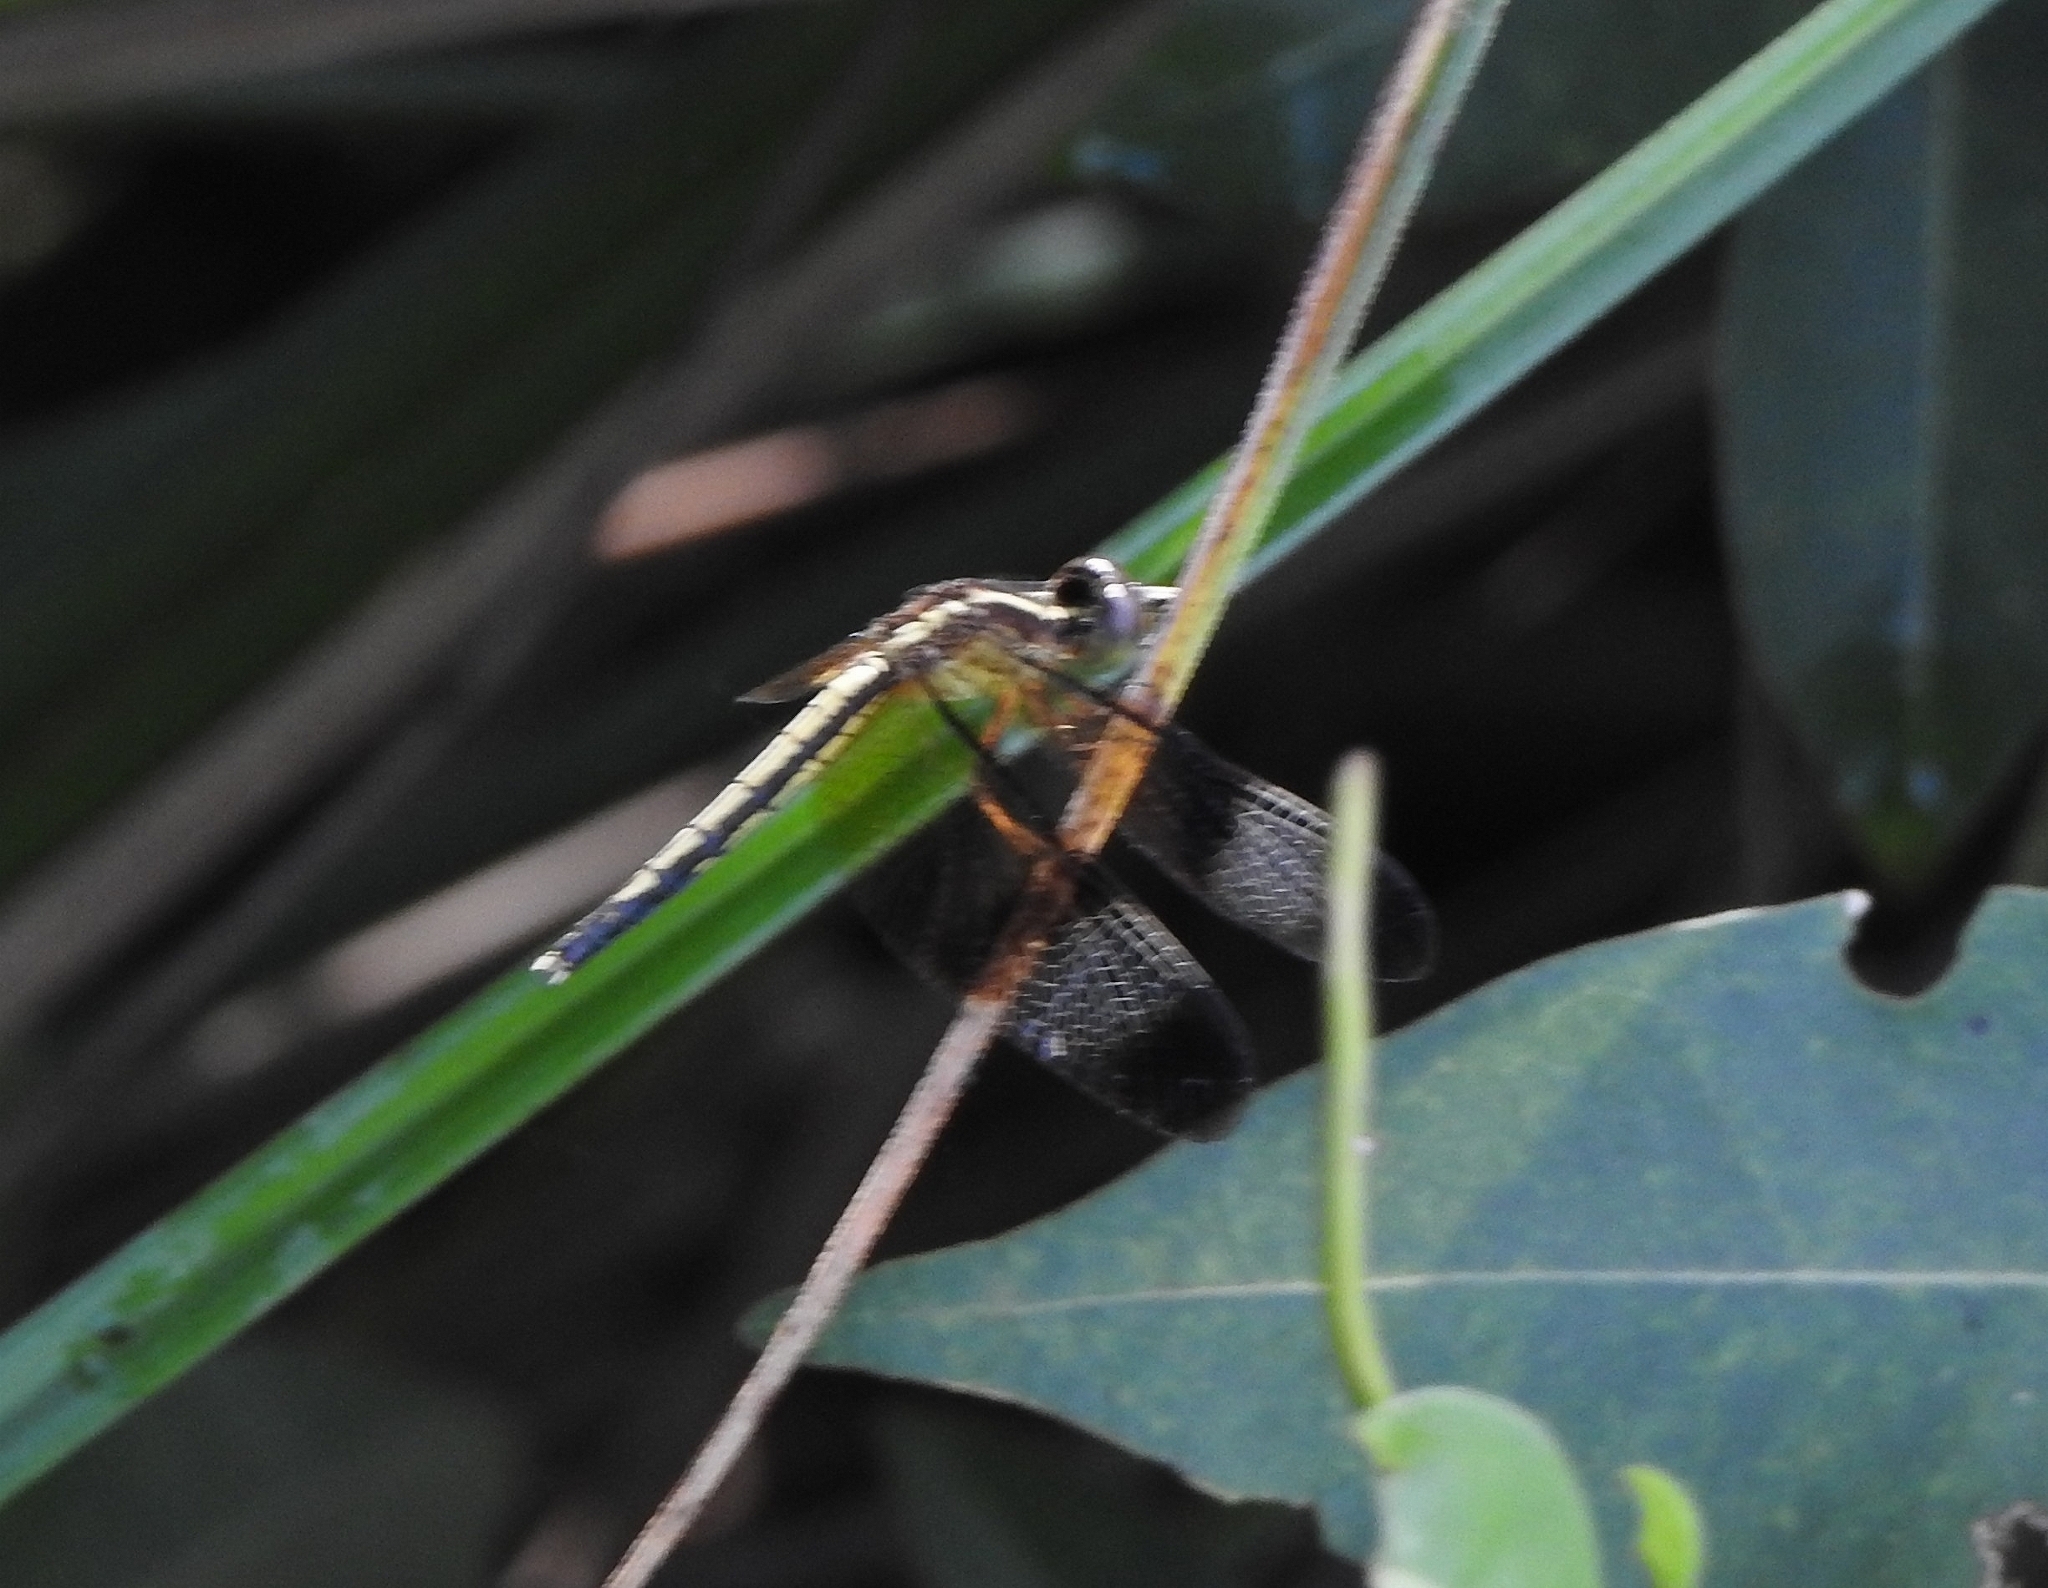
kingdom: Animalia
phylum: Arthropoda
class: Insecta
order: Odonata
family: Libellulidae
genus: Neurothemis
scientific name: Neurothemis tullia
